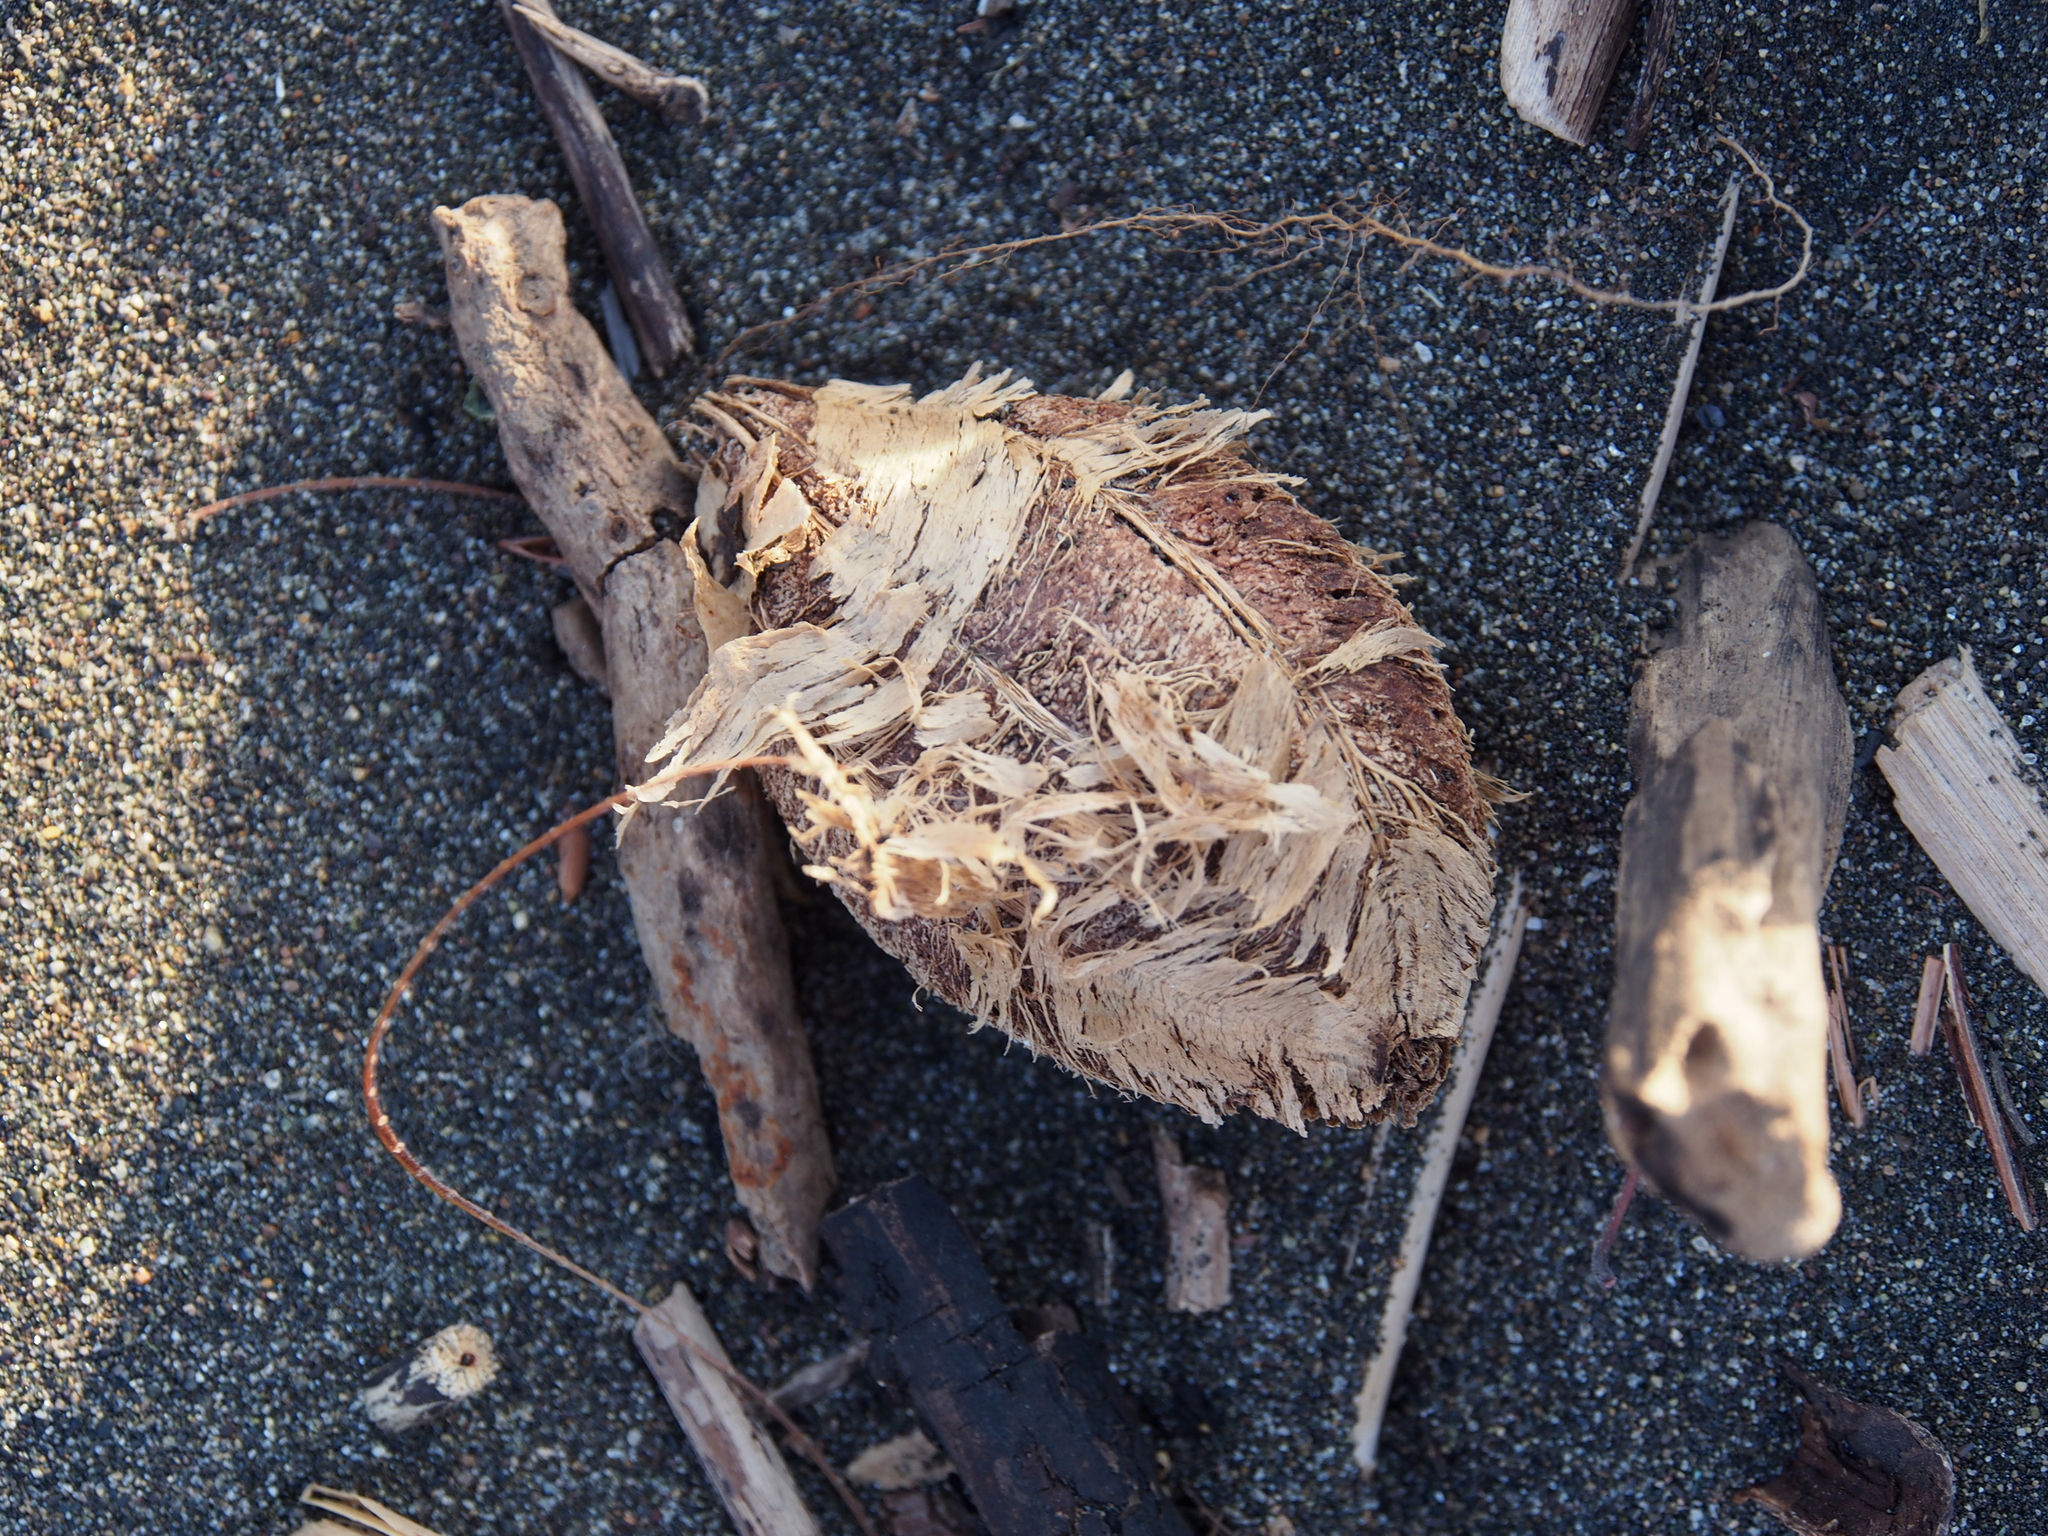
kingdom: Plantae
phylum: Tracheophyta
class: Magnoliopsida
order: Myrtales
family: Combretaceae
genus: Terminalia
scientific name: Terminalia catappa
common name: Tropical almond
